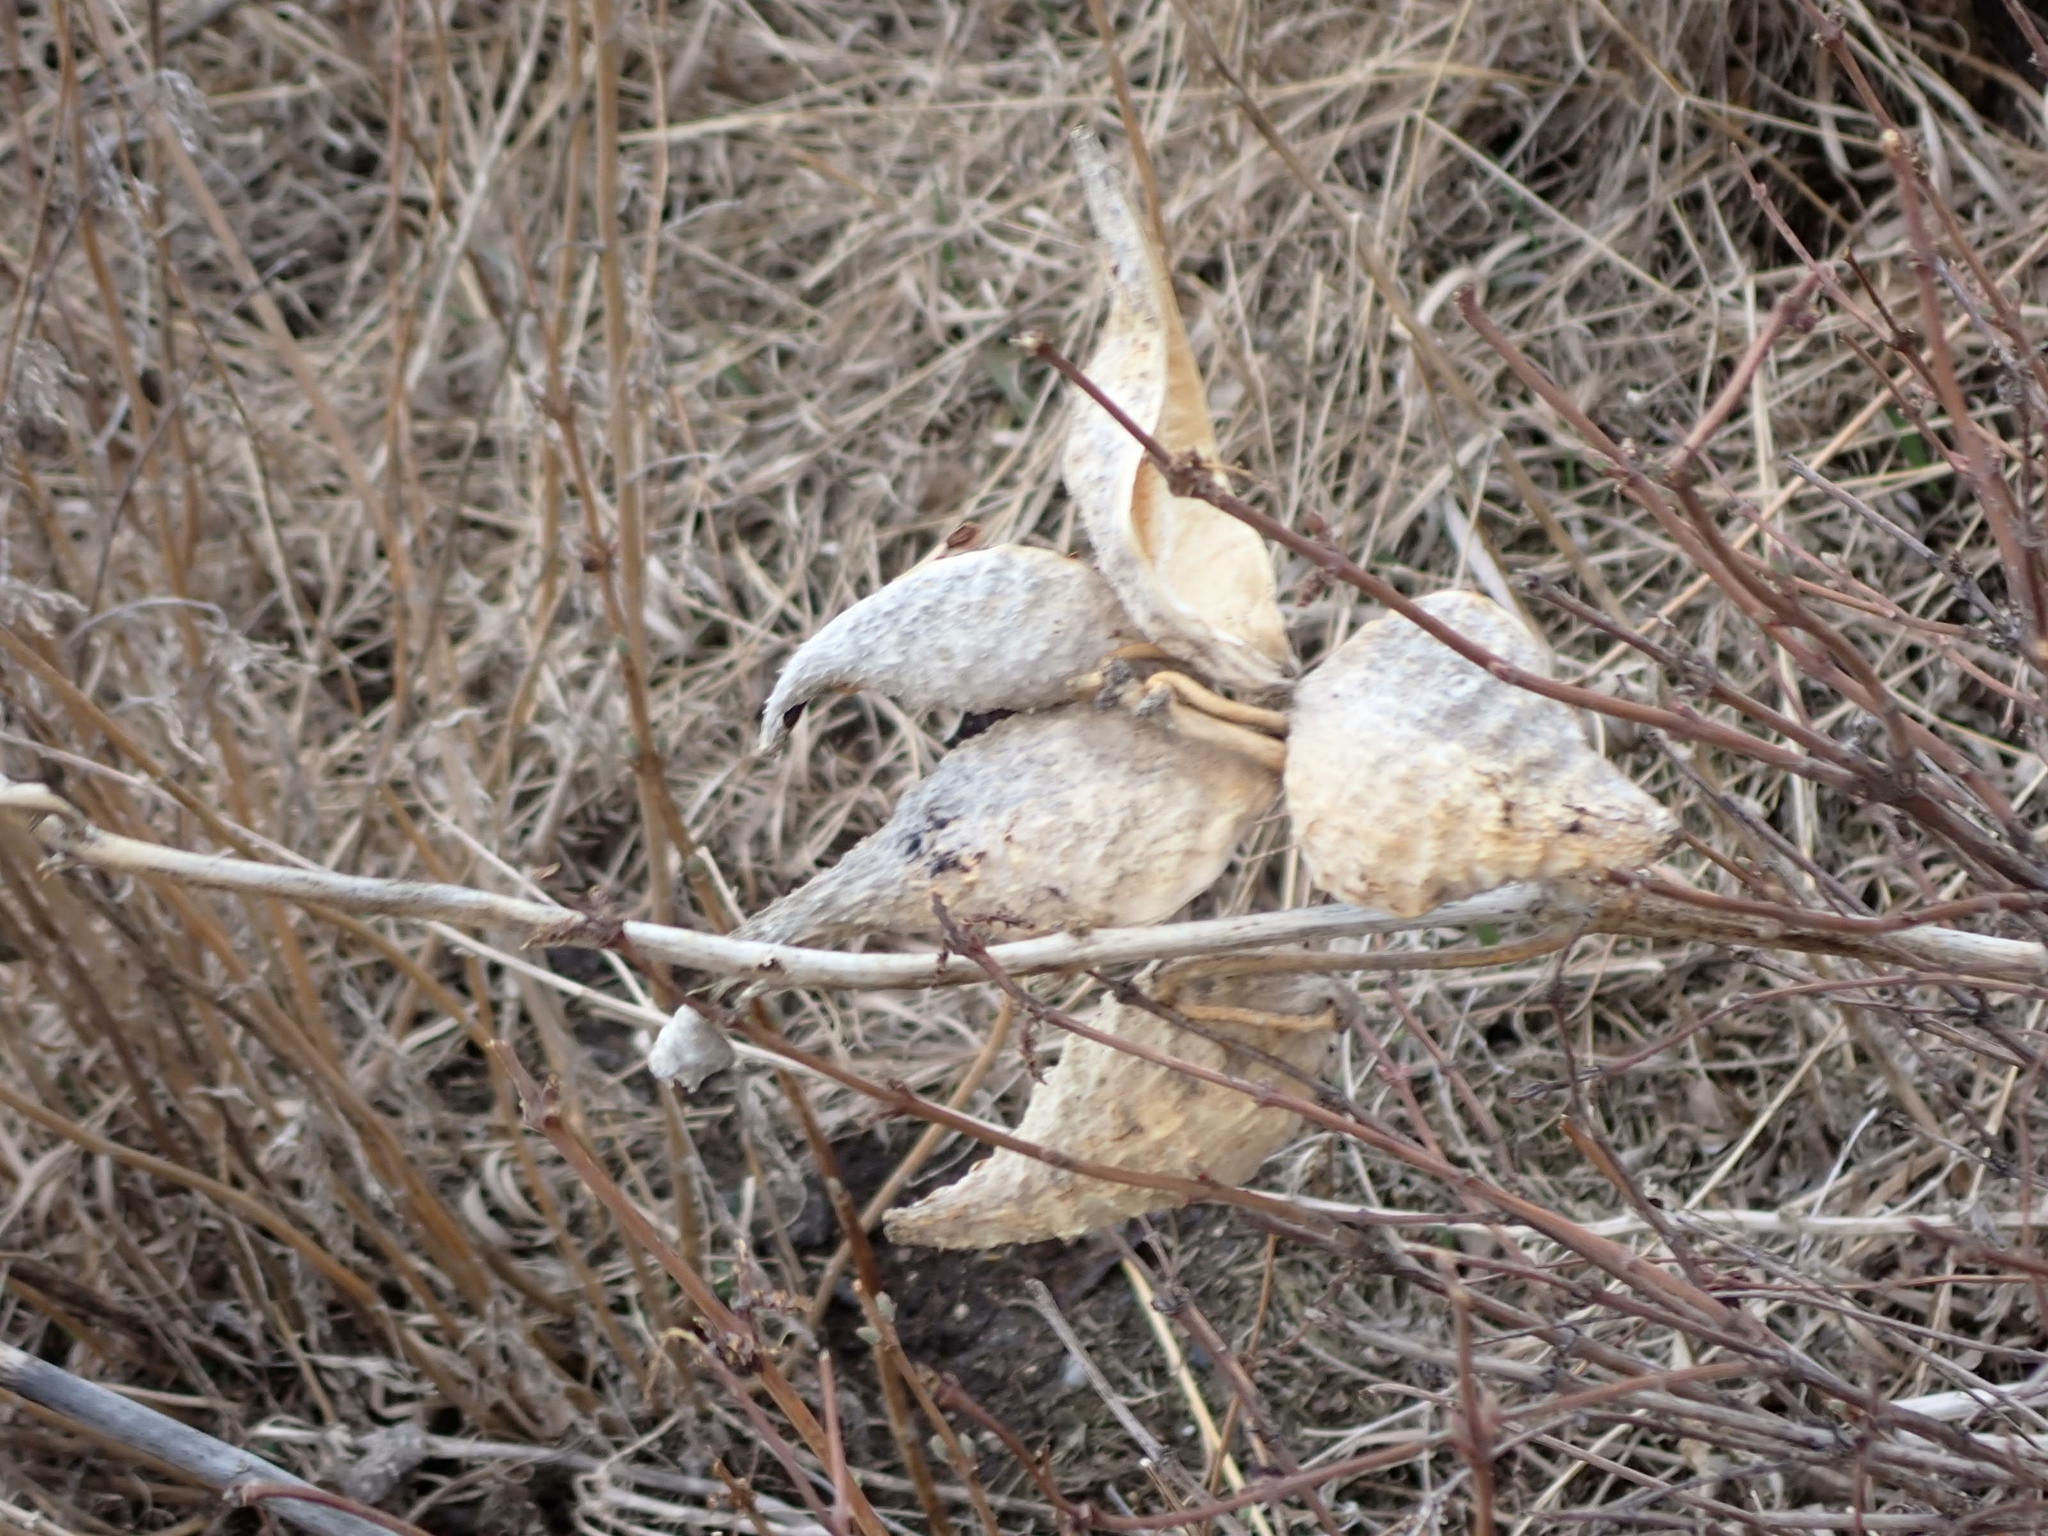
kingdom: Plantae
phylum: Tracheophyta
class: Magnoliopsida
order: Gentianales
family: Apocynaceae
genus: Asclepias
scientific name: Asclepias syriaca
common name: Common milkweed
